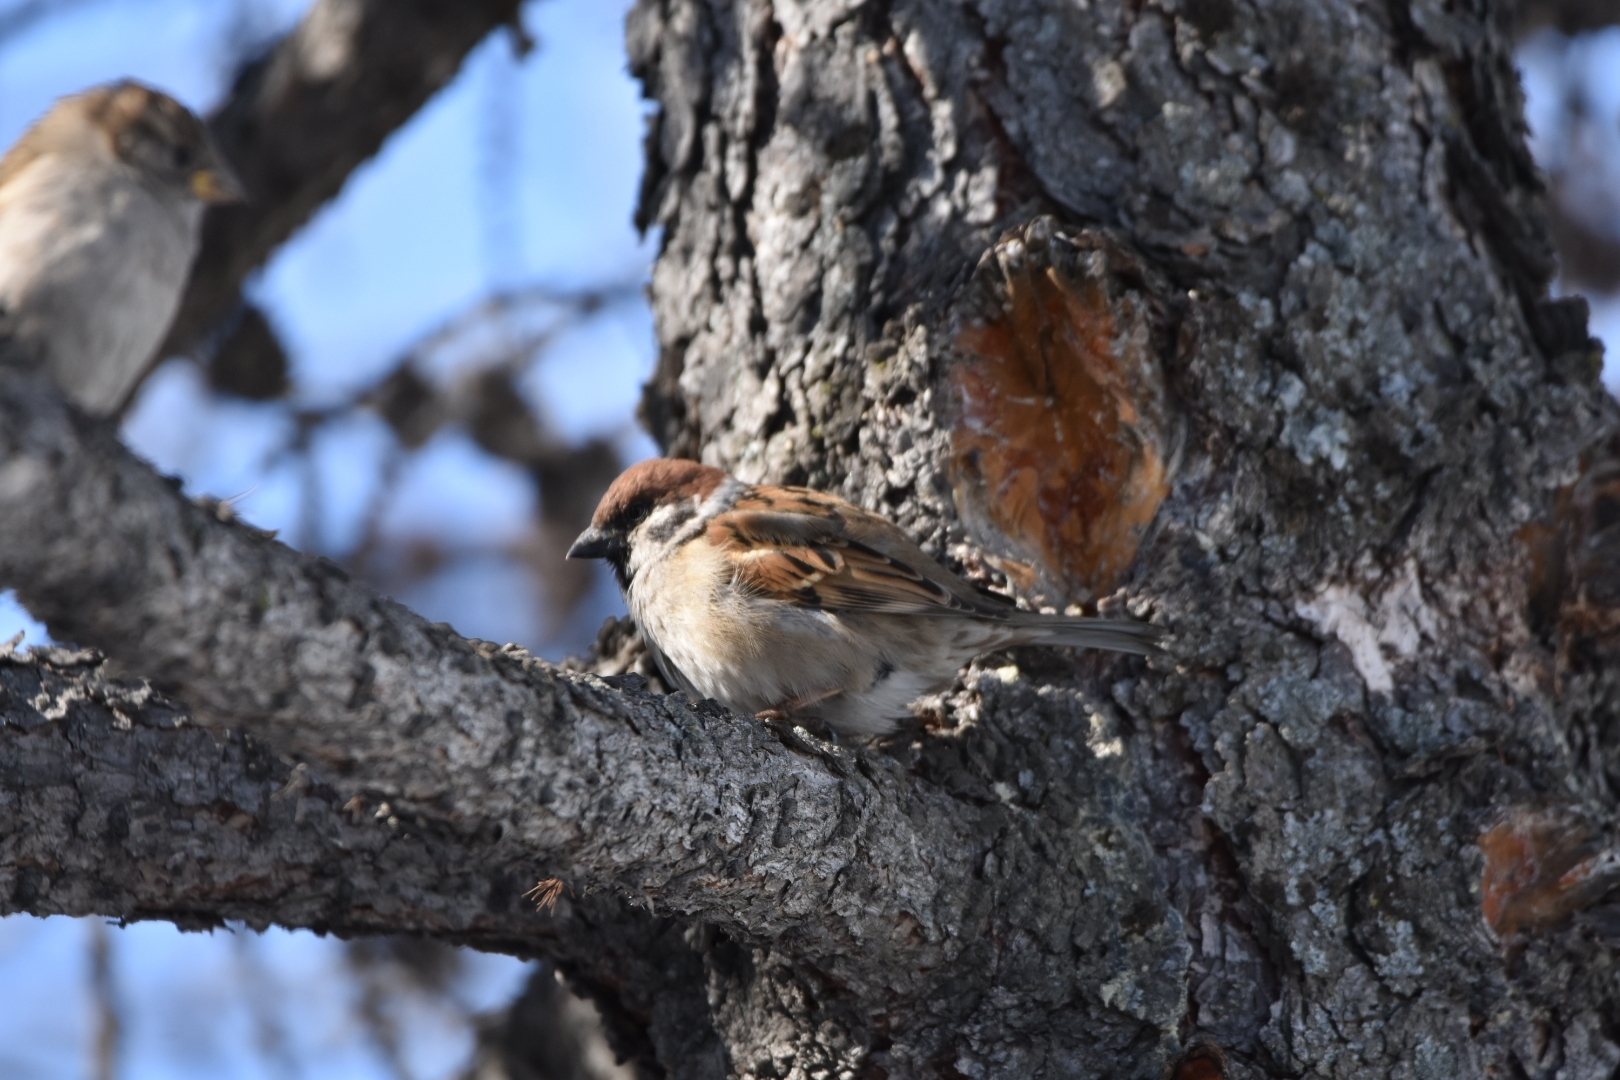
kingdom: Animalia
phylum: Chordata
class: Aves
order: Passeriformes
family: Passeridae
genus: Passer
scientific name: Passer montanus
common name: Eurasian tree sparrow
